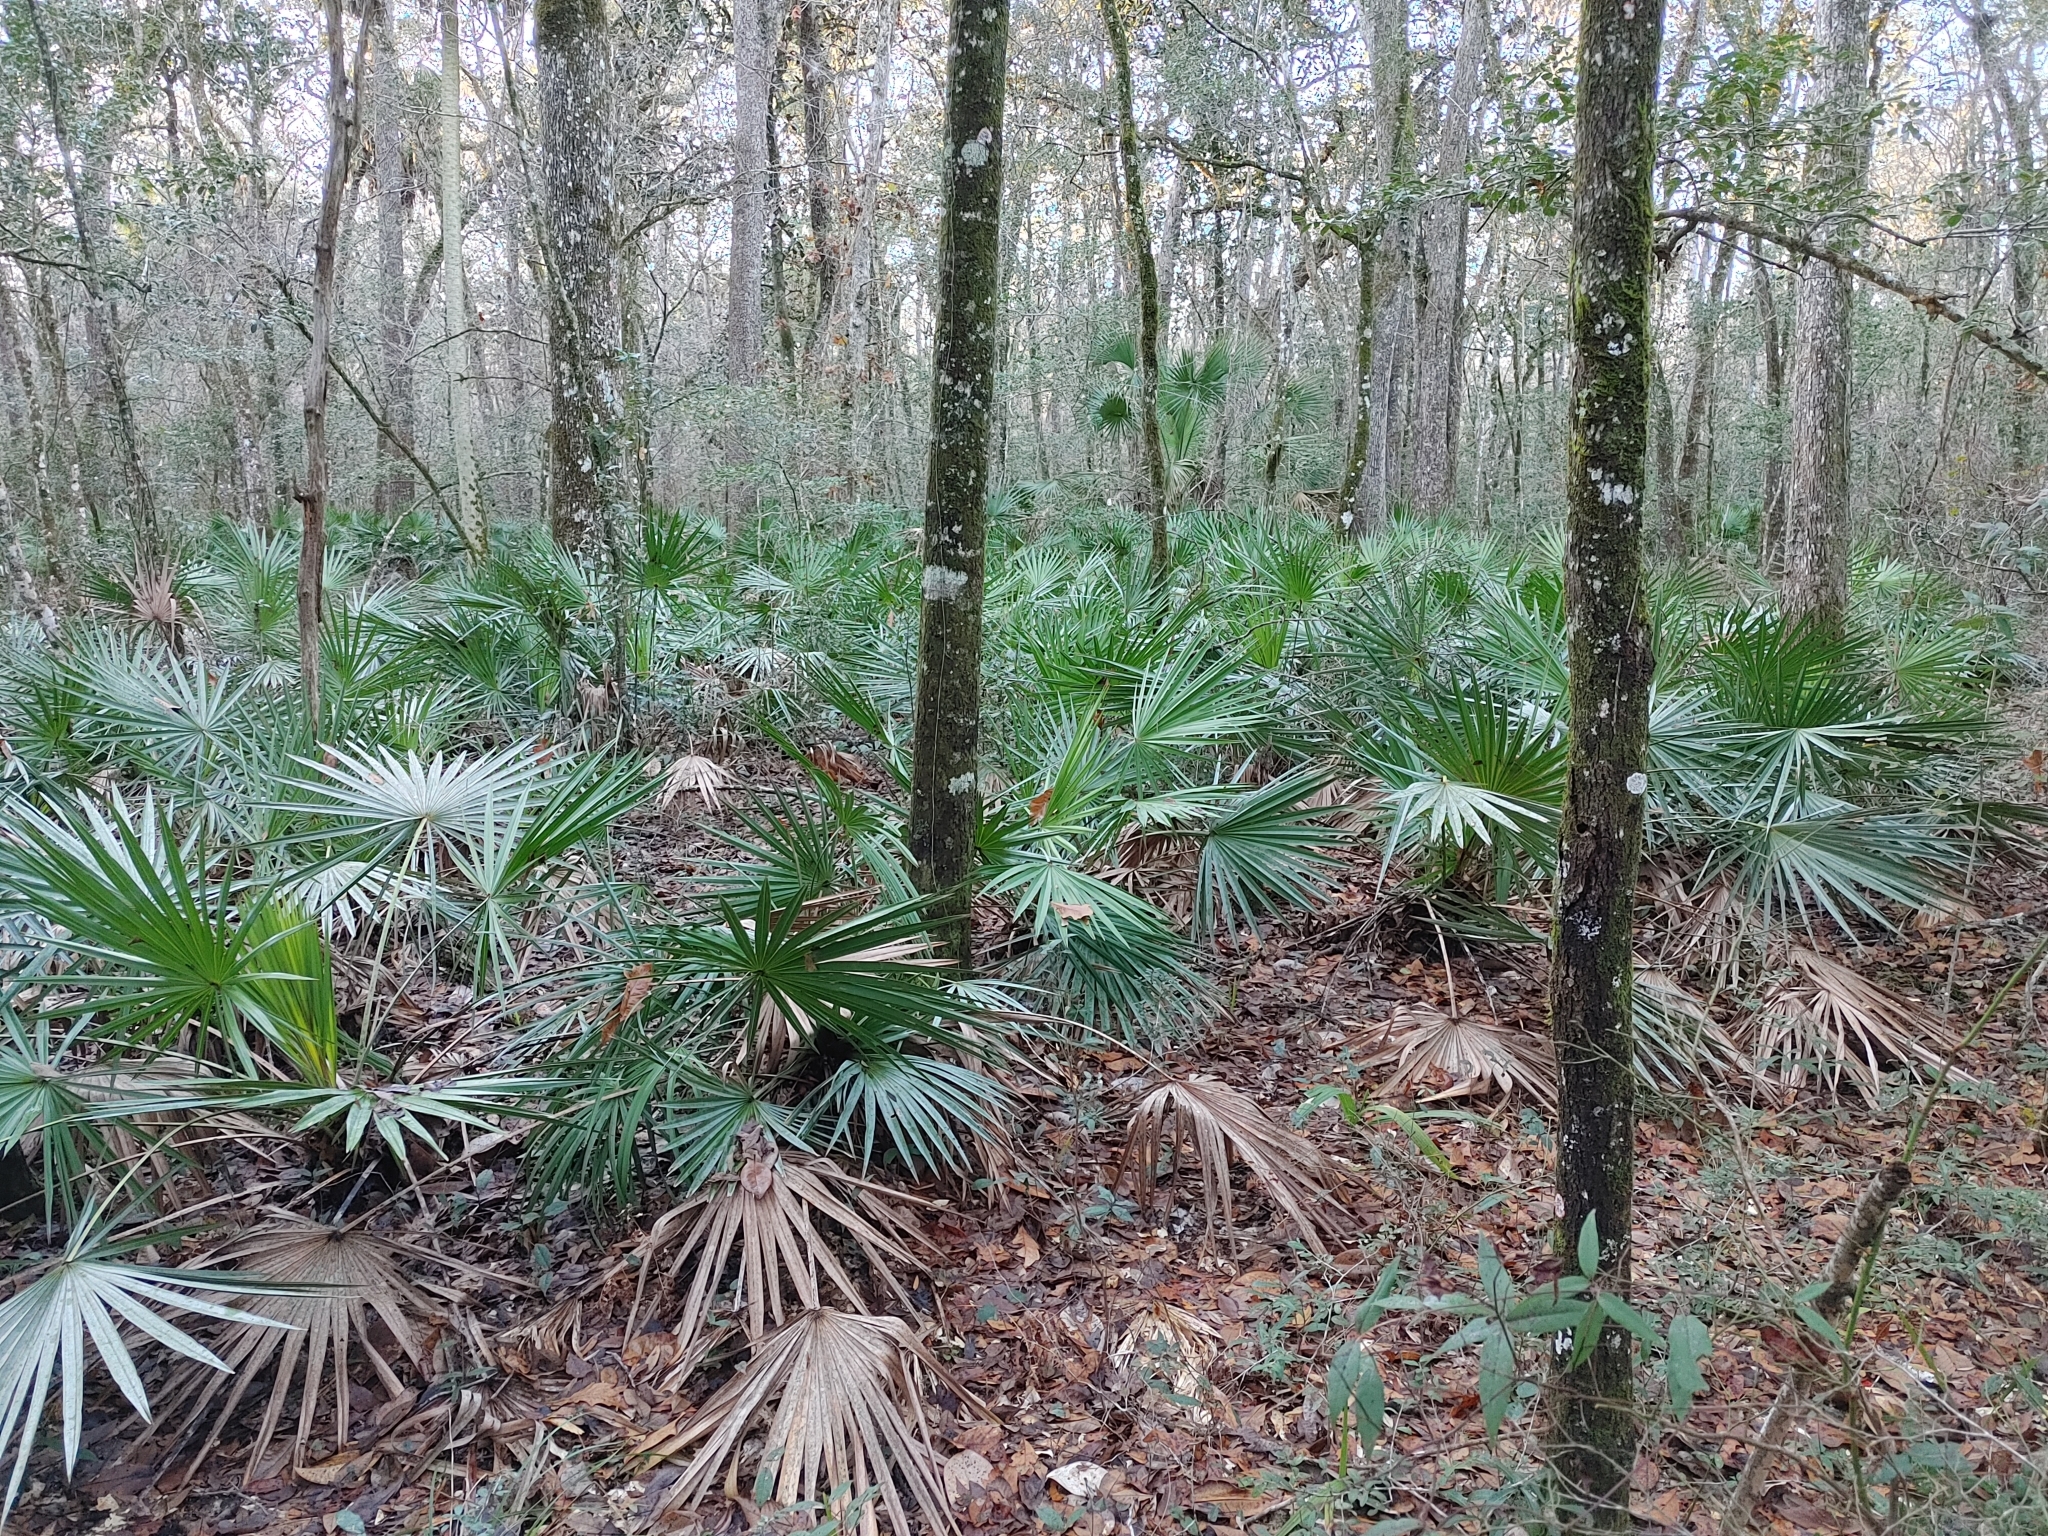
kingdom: Plantae
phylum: Tracheophyta
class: Liliopsida
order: Arecales
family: Arecaceae
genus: Serenoa
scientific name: Serenoa repens
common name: Saw-palmetto
